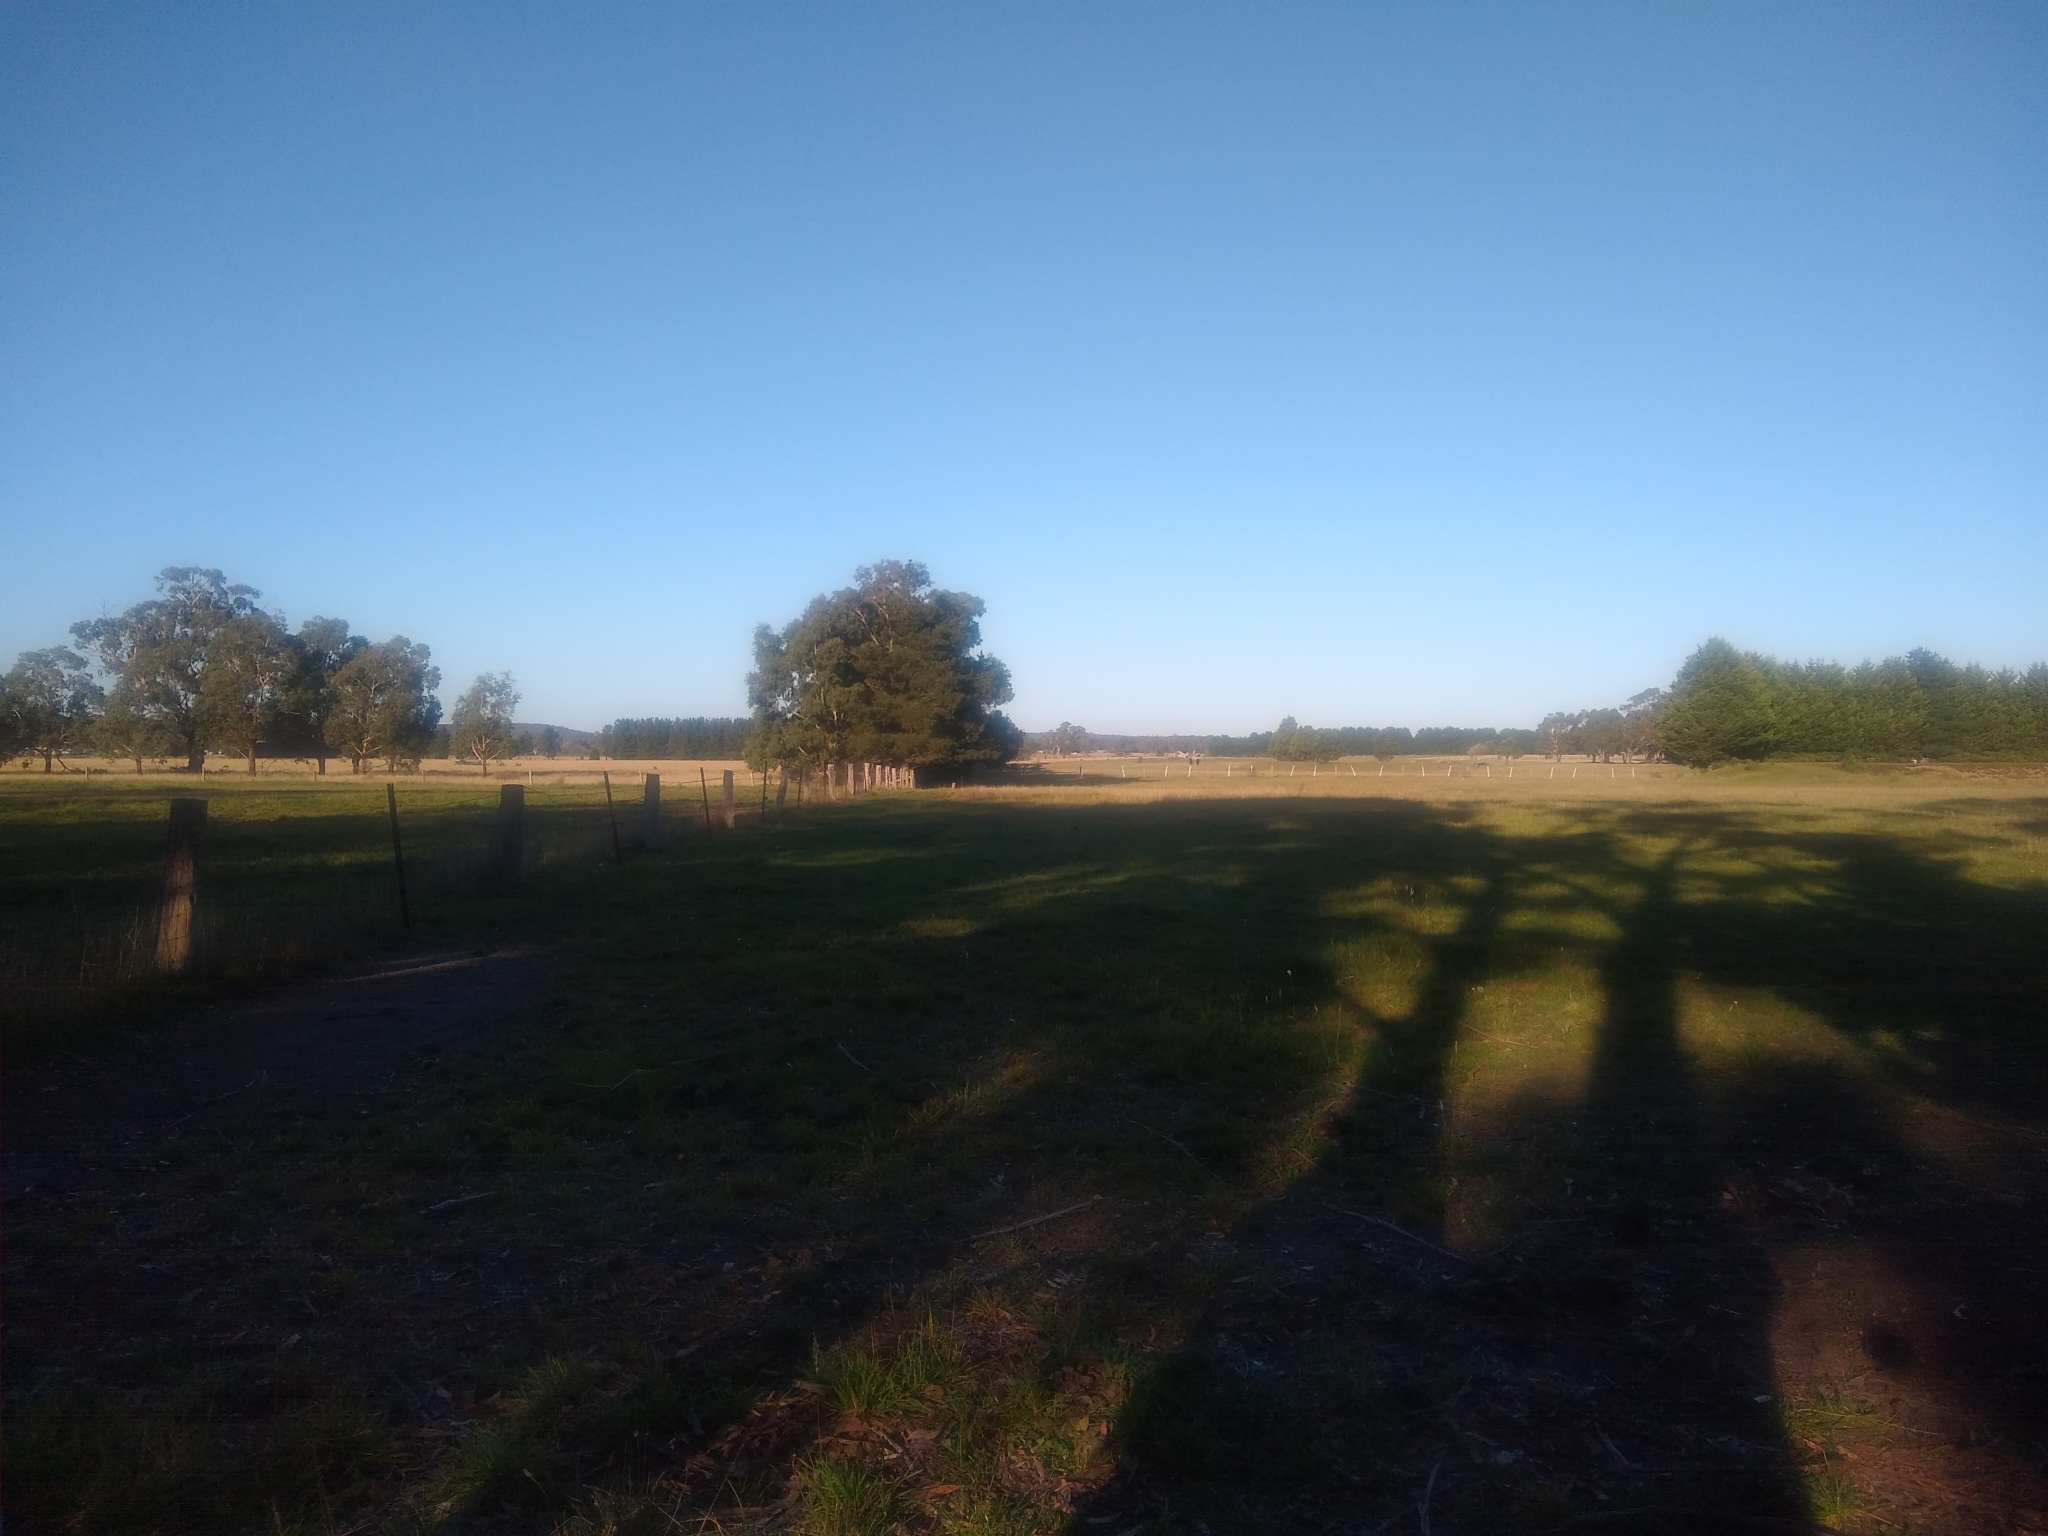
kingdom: Animalia
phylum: Chordata
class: Mammalia
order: Diprotodontia
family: Macropodidae
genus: Macropus
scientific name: Macropus giganteus
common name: Eastern grey kangaroo
